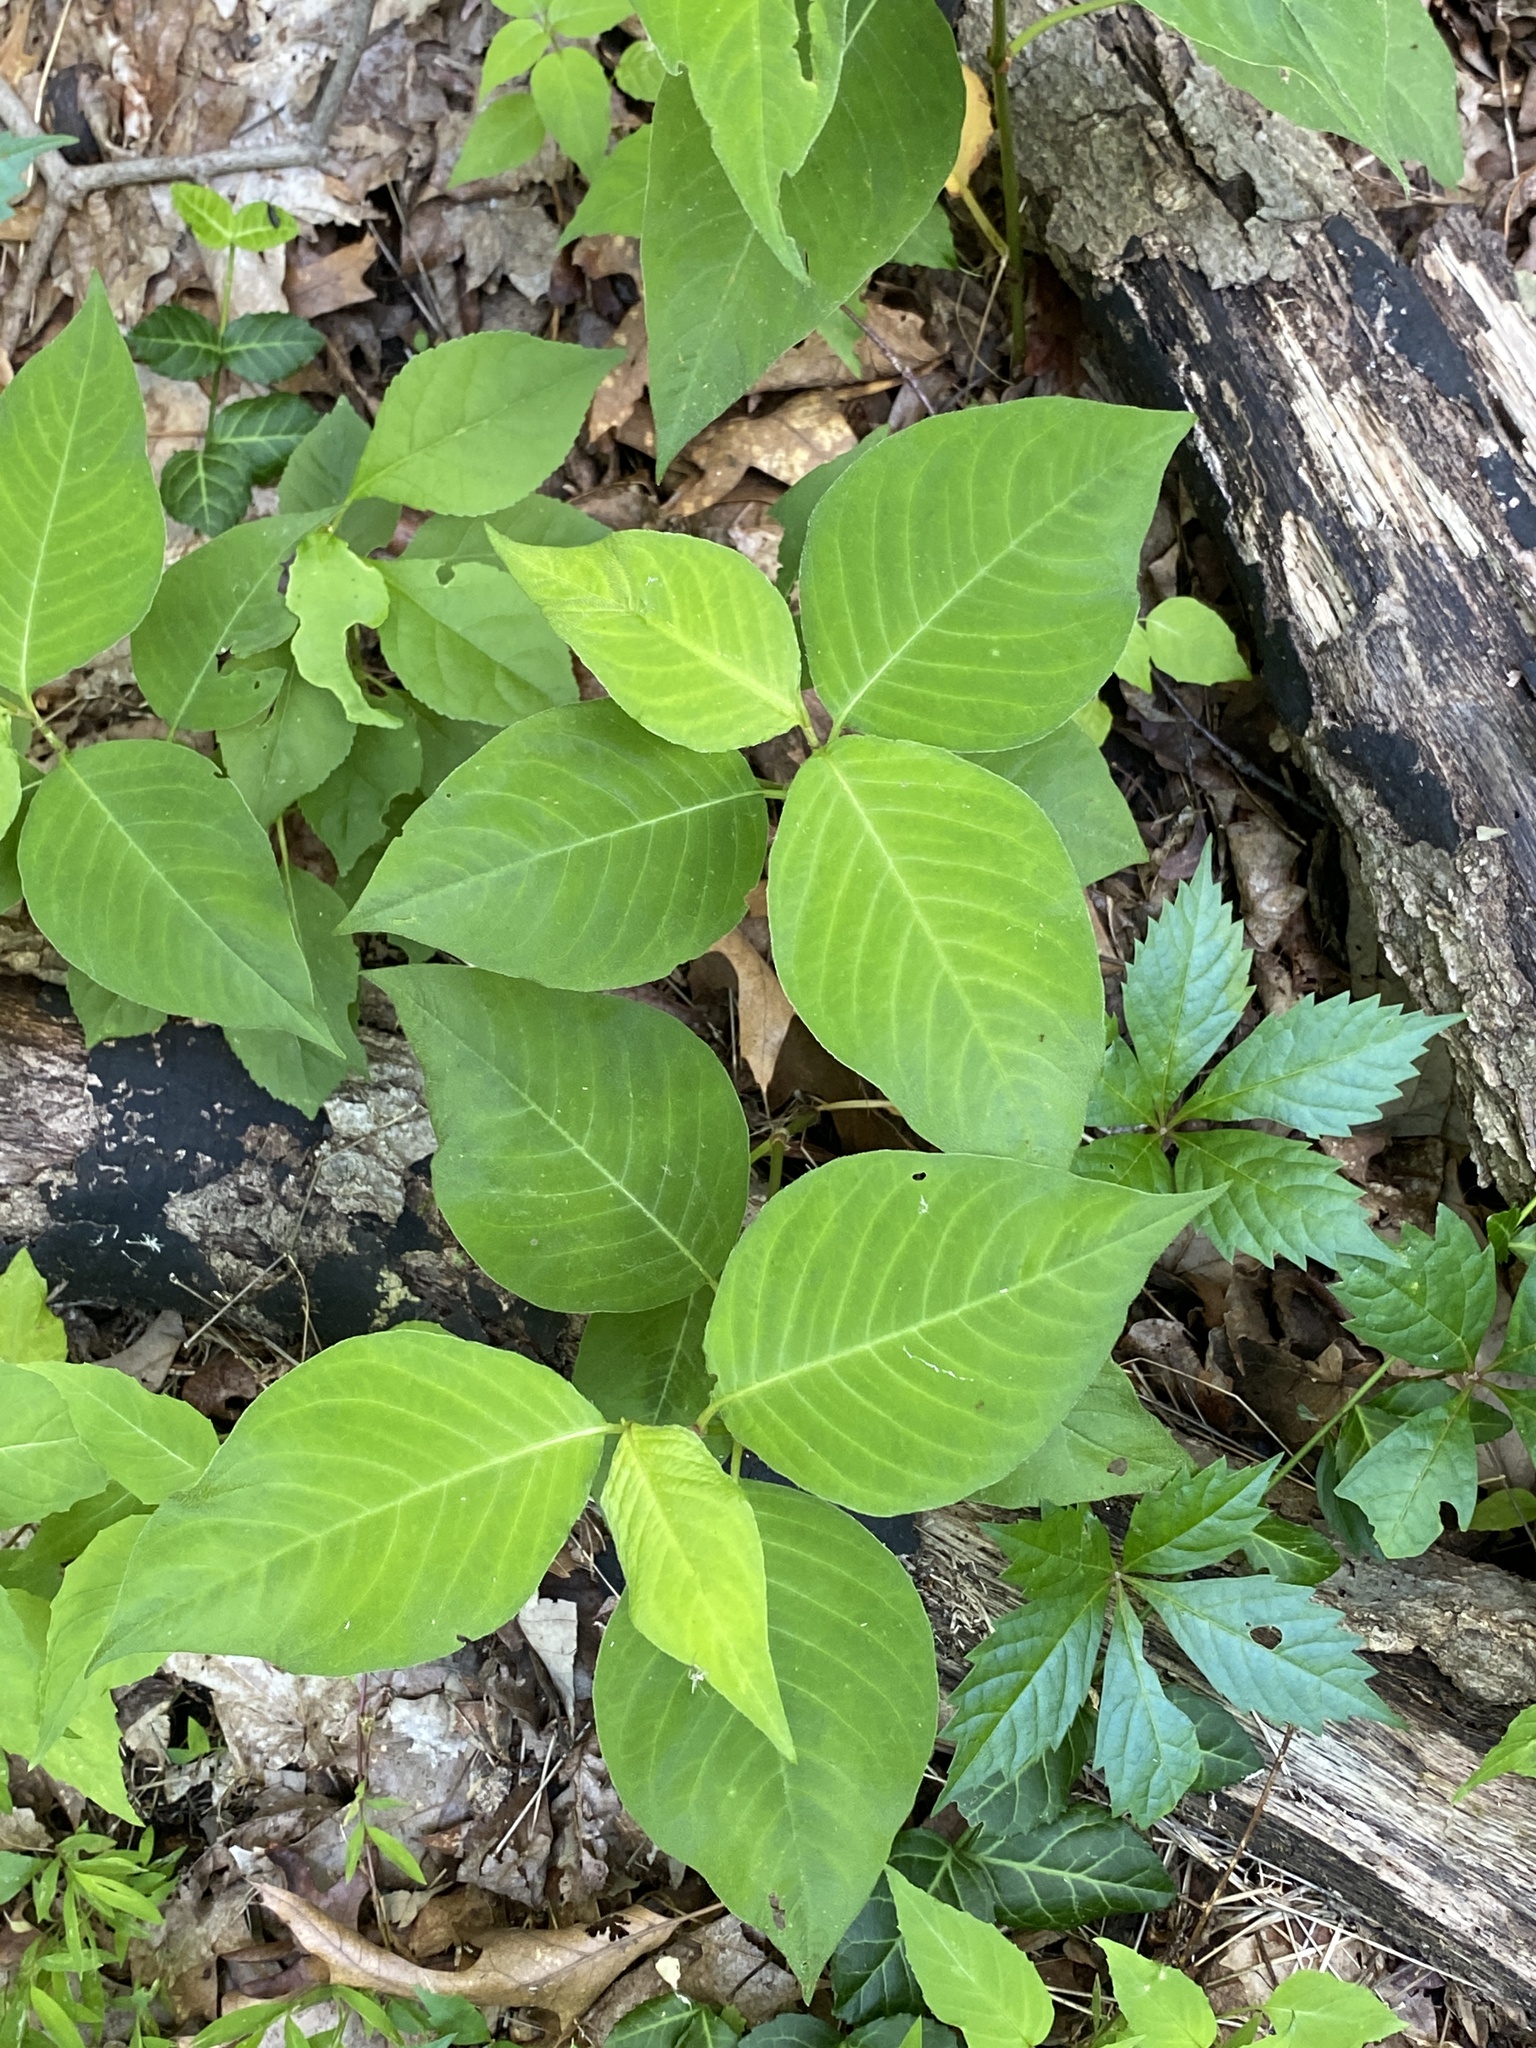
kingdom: Plantae
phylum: Tracheophyta
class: Magnoliopsida
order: Caryophyllales
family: Polygonaceae
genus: Persicaria
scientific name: Persicaria virginiana
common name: Jumpseed
